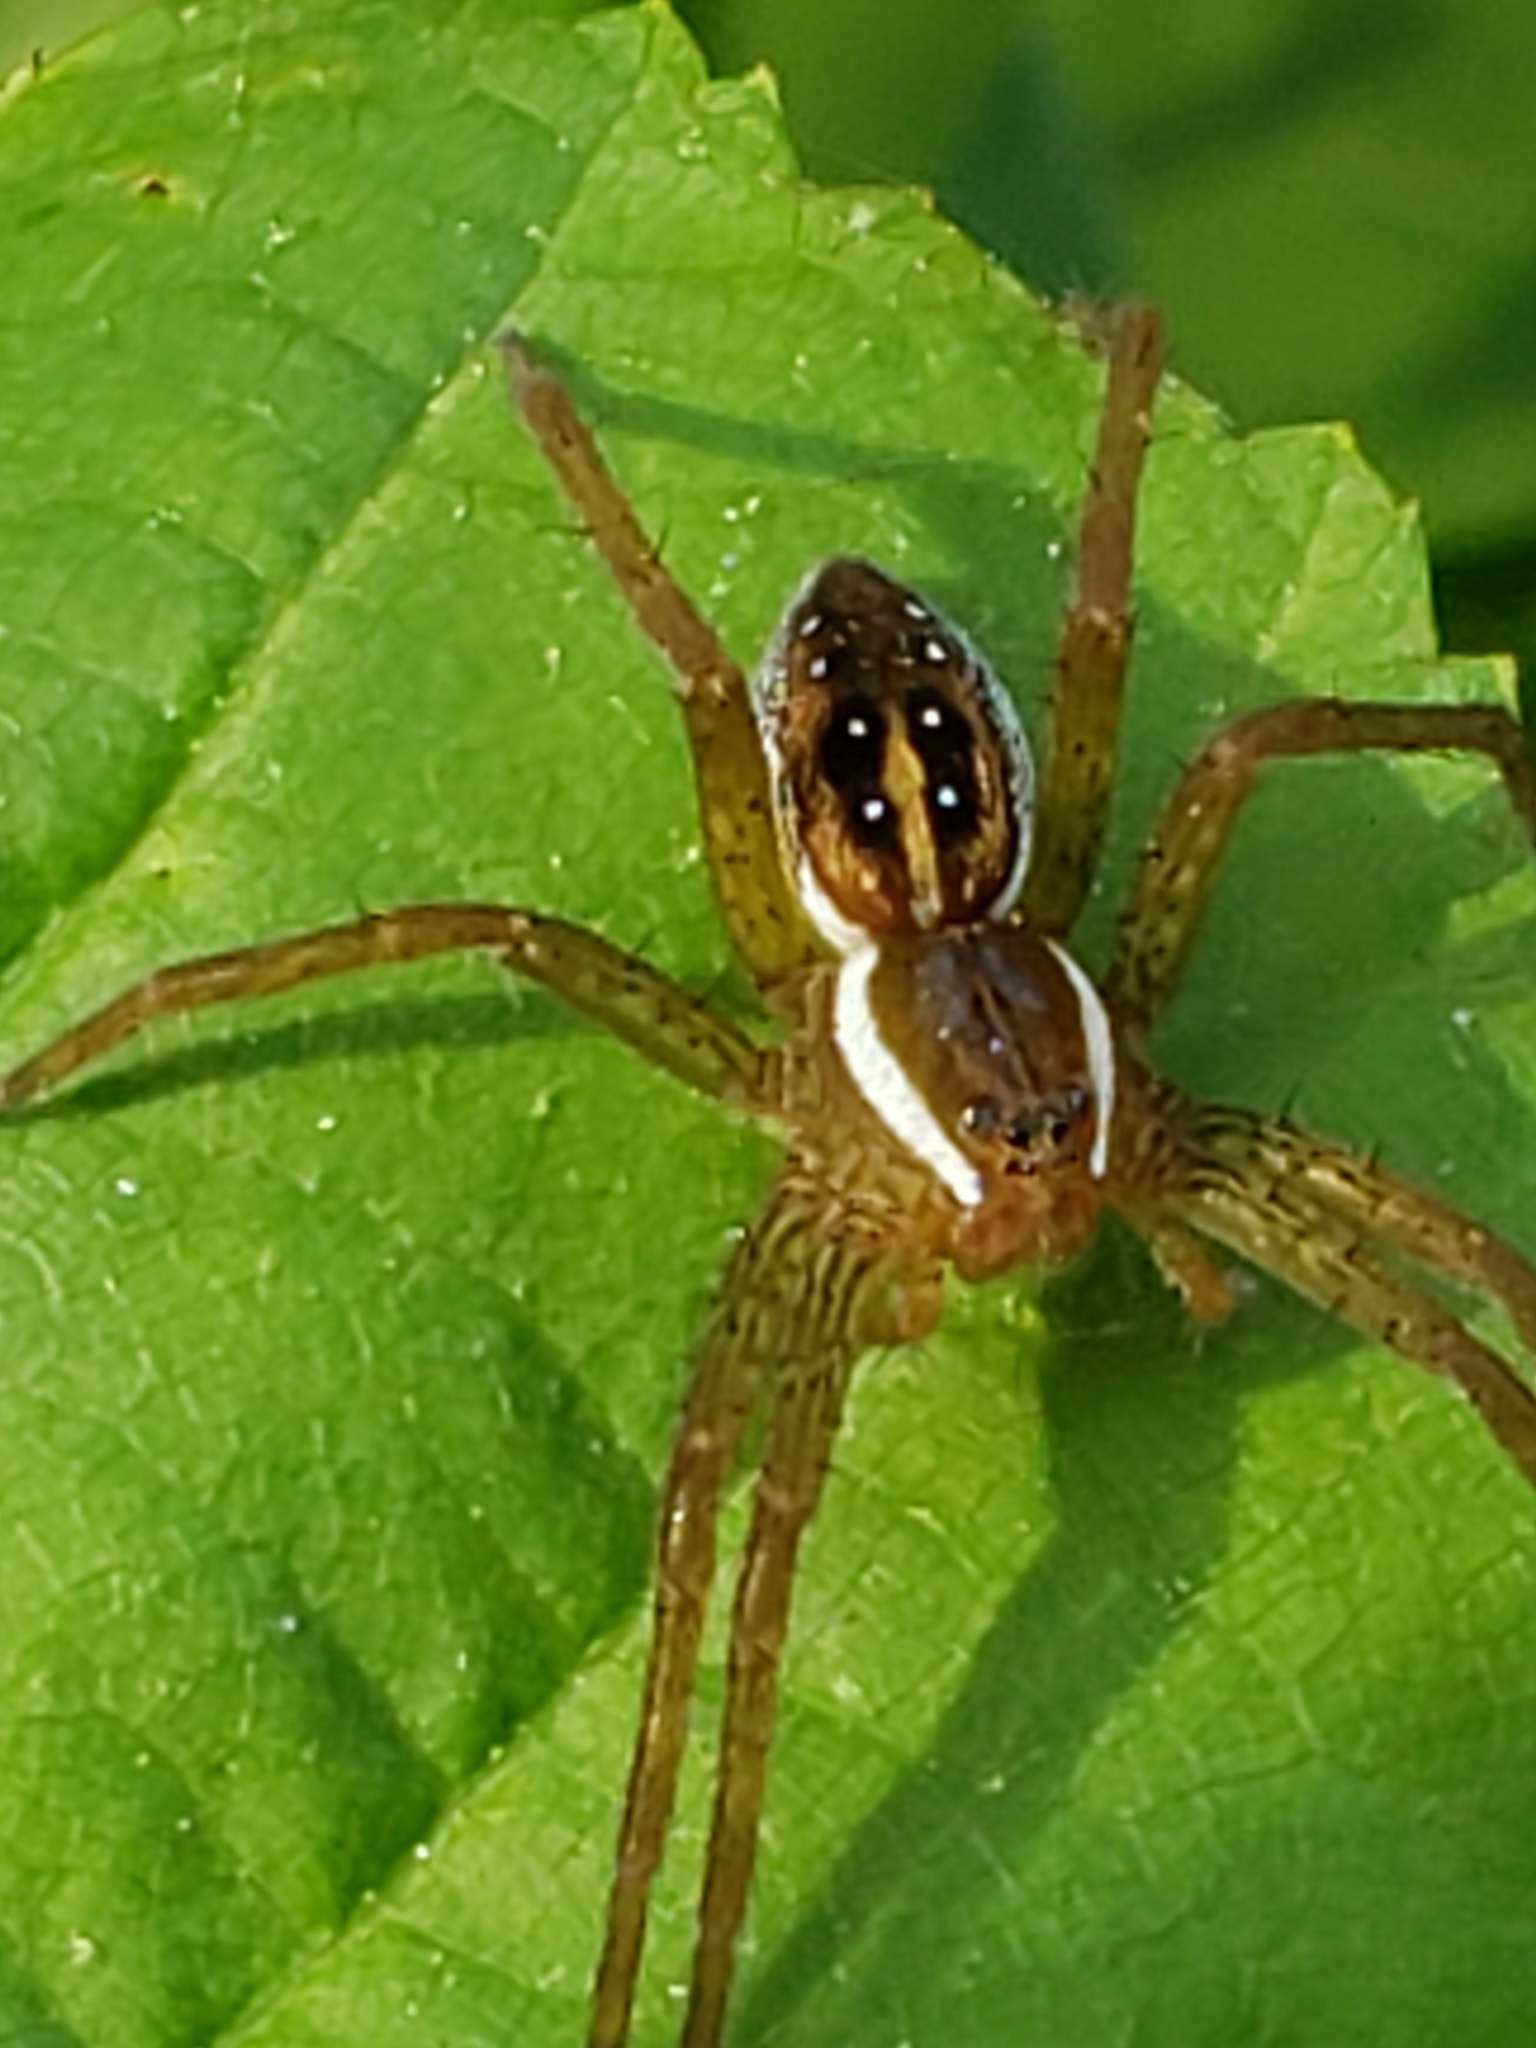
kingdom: Animalia
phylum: Arthropoda
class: Arachnida
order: Araneae
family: Pisauridae
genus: Dolomedes
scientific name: Dolomedes triton
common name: Six-spotted fishing spider
